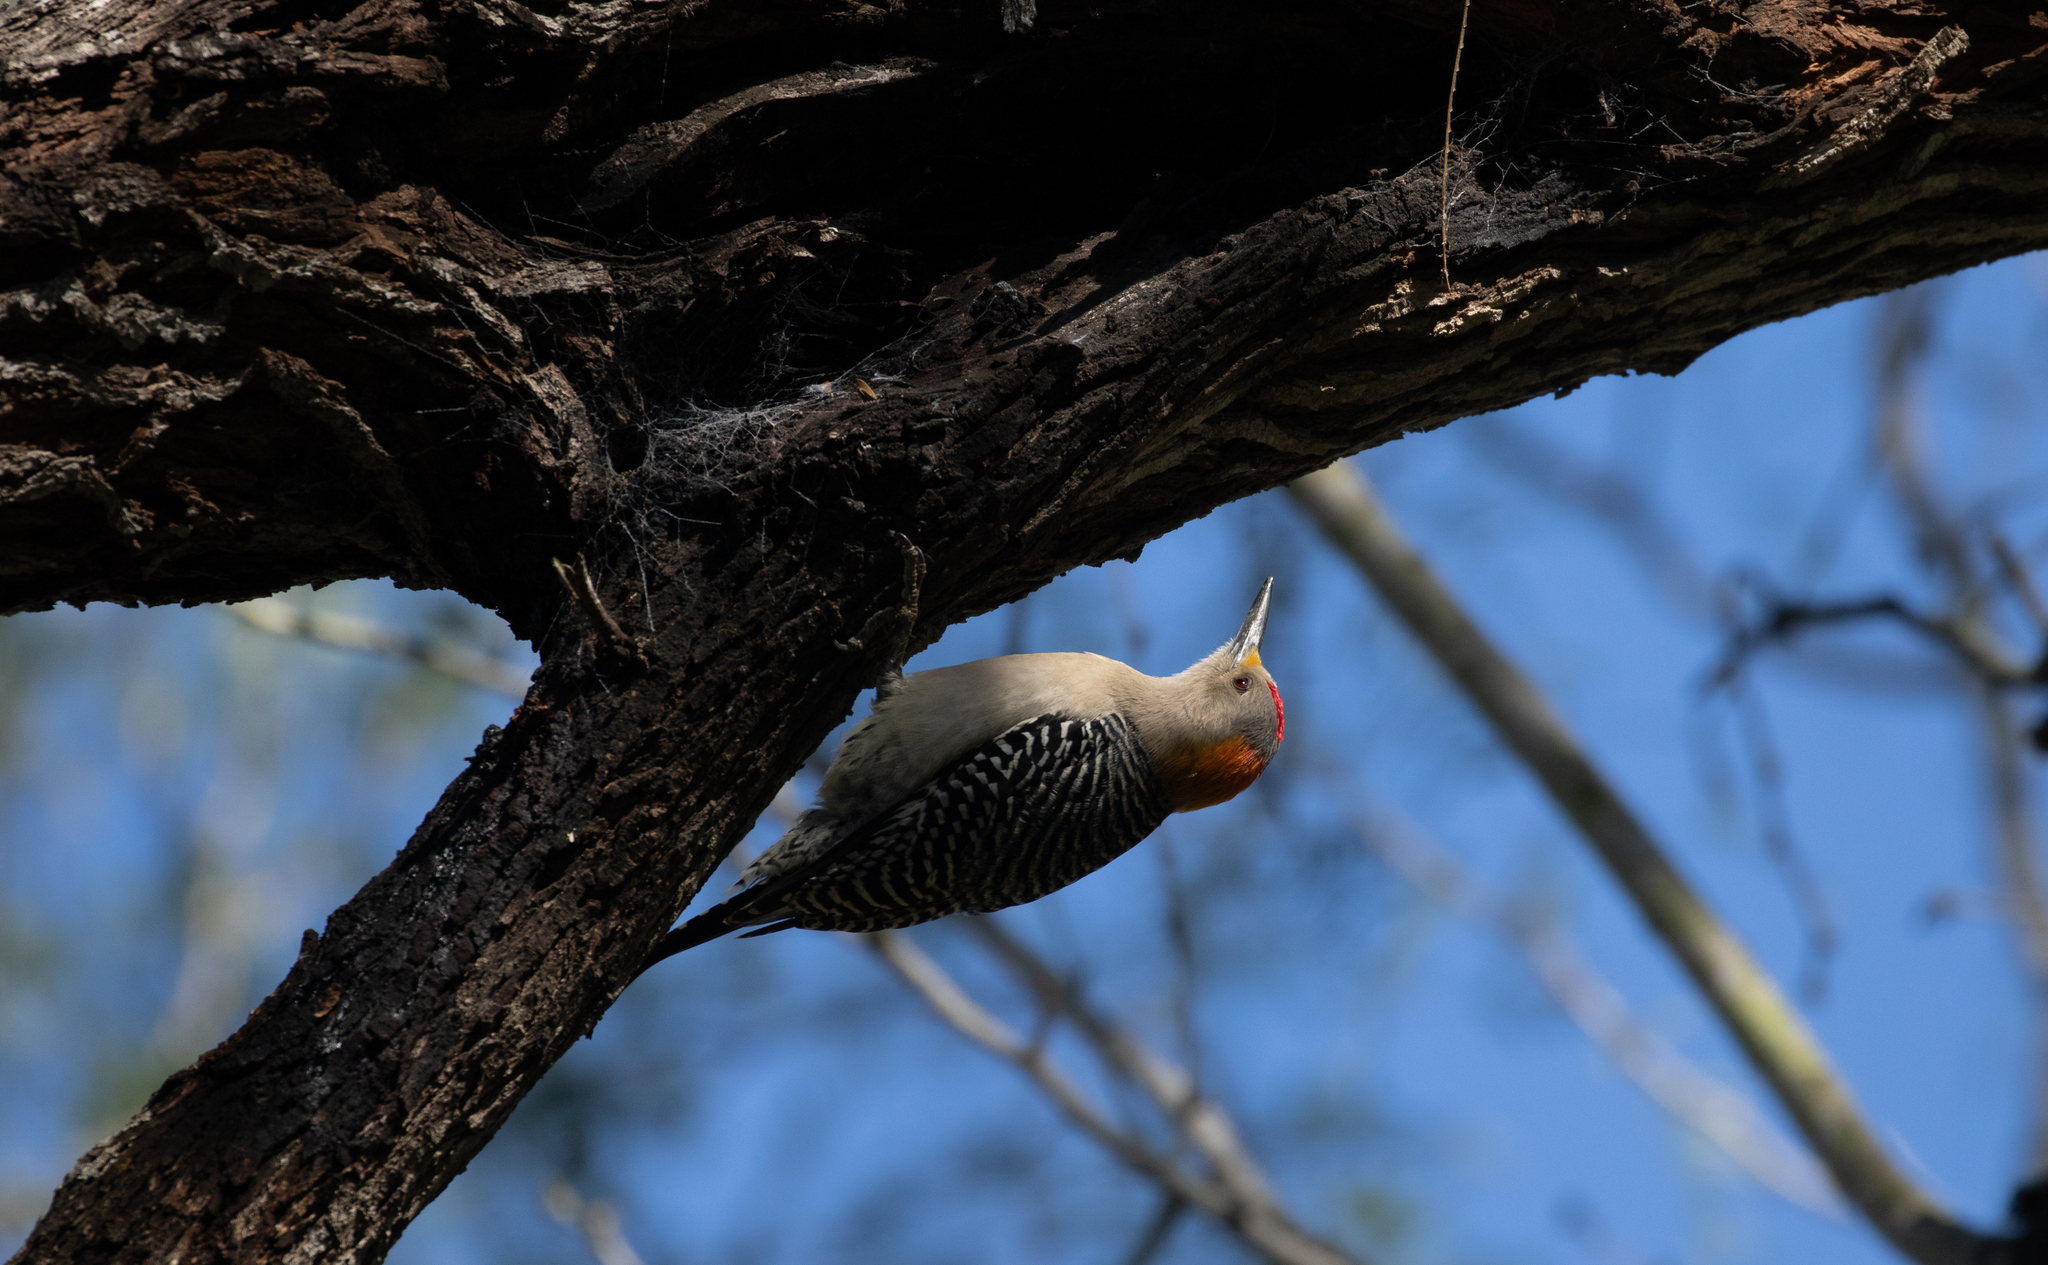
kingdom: Animalia
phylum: Chordata
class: Aves
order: Piciformes
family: Picidae
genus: Melanerpes
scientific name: Melanerpes aurifrons
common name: Golden-fronted woodpecker
